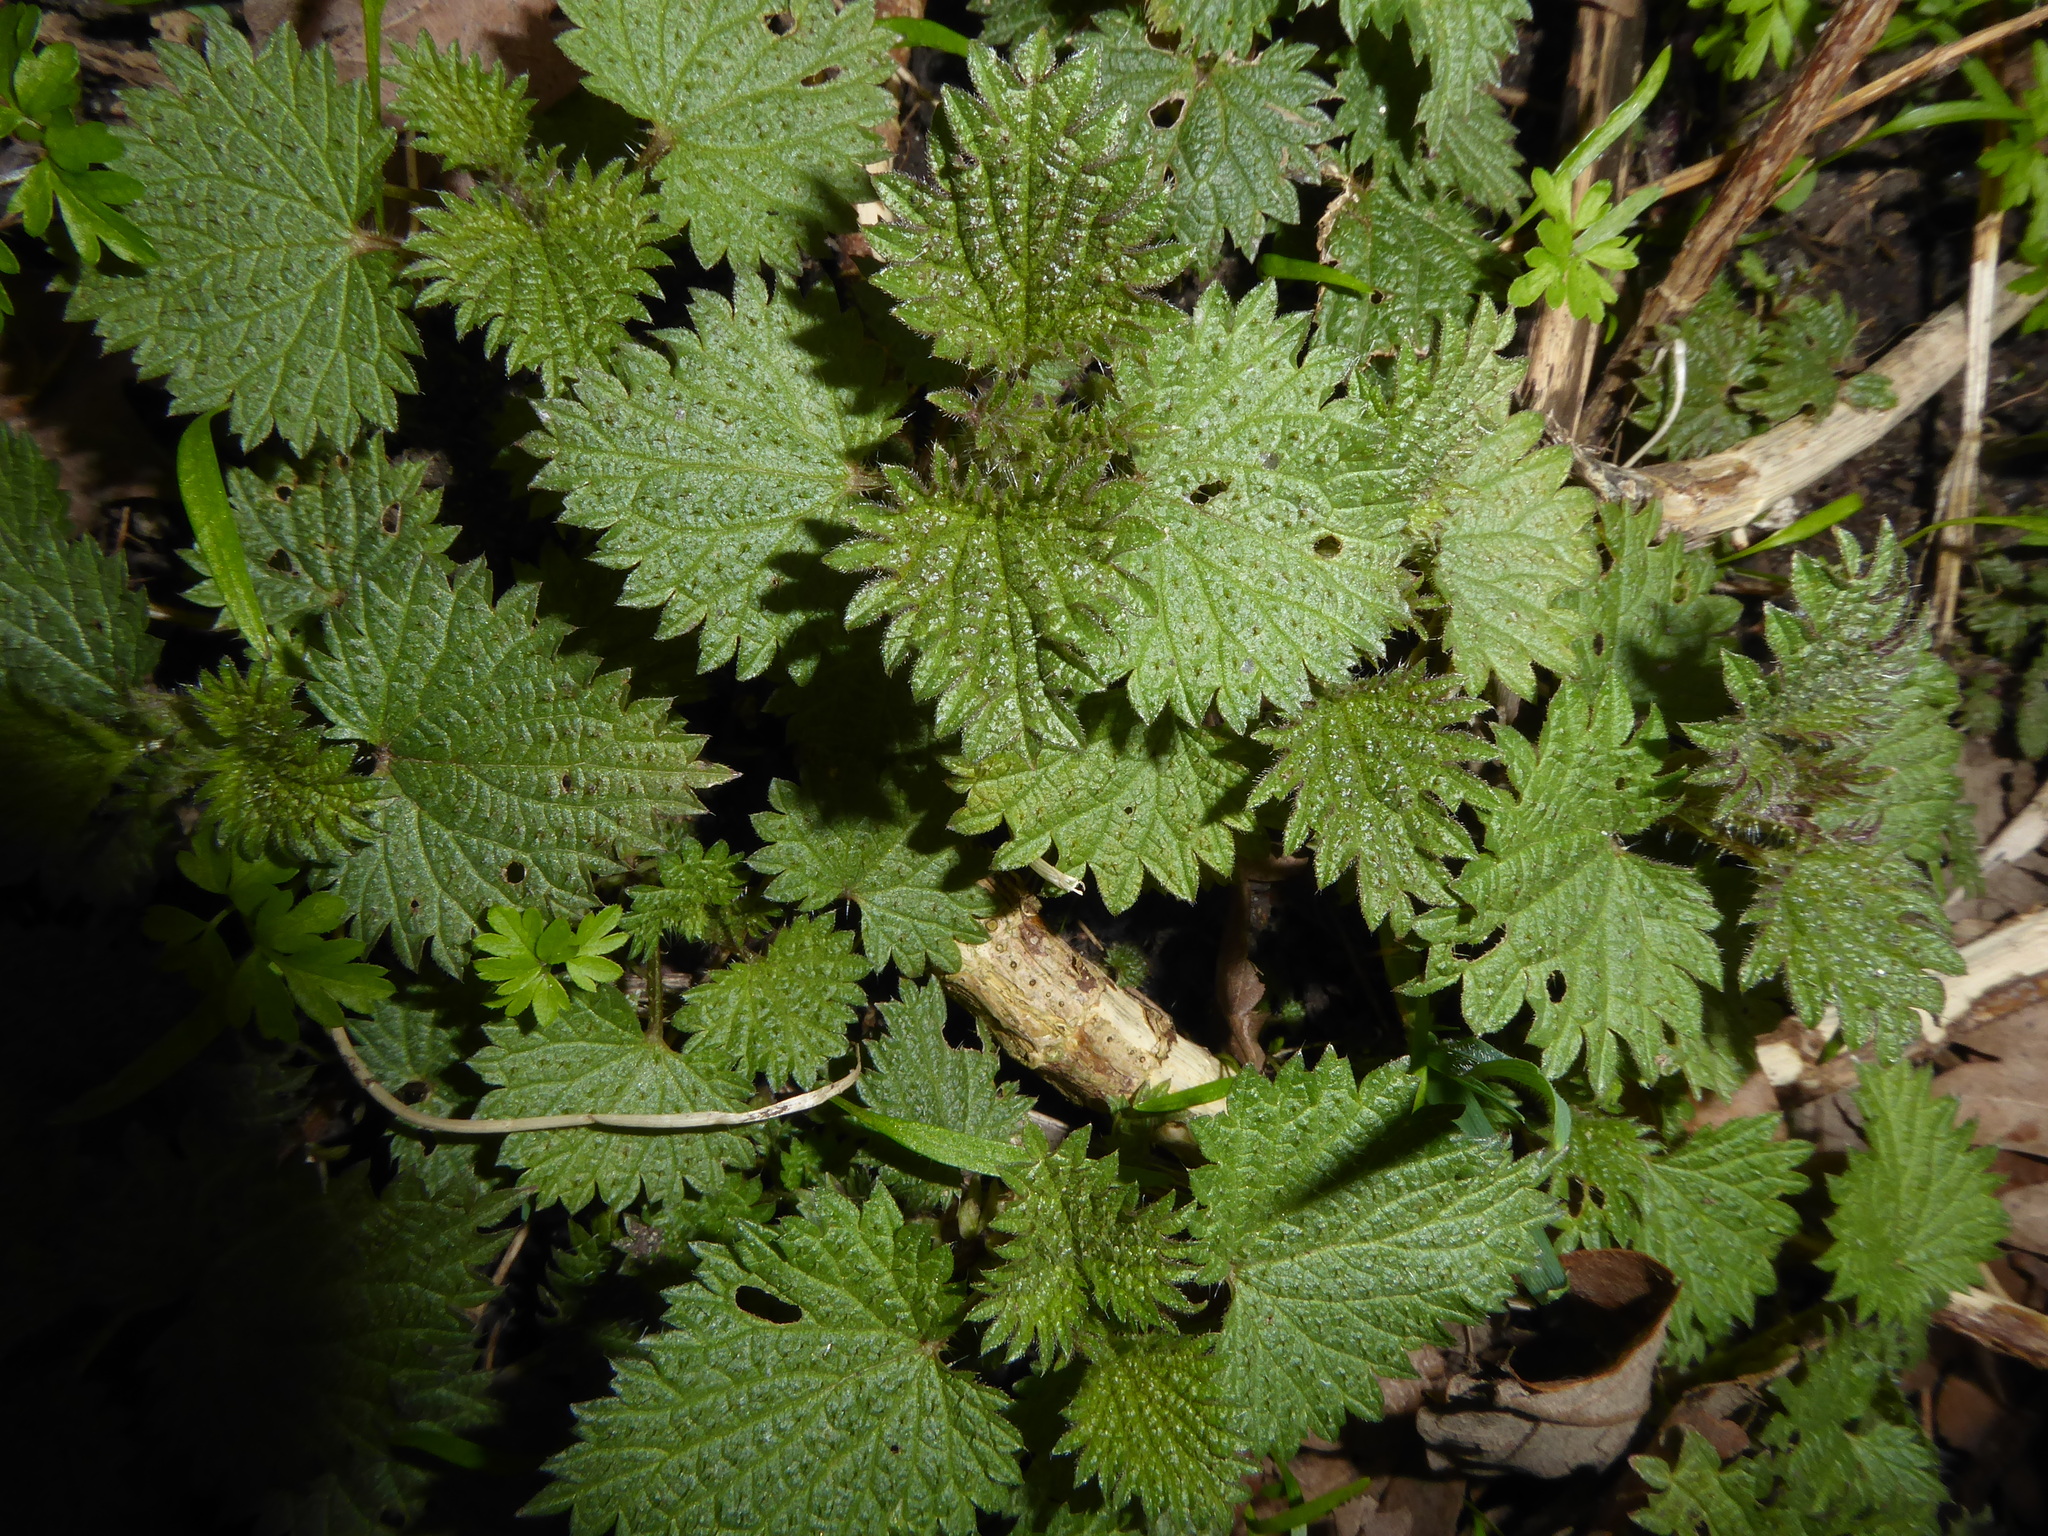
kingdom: Plantae
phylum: Tracheophyta
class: Magnoliopsida
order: Rosales
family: Urticaceae
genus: Urtica
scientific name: Urtica dioica
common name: Common nettle
